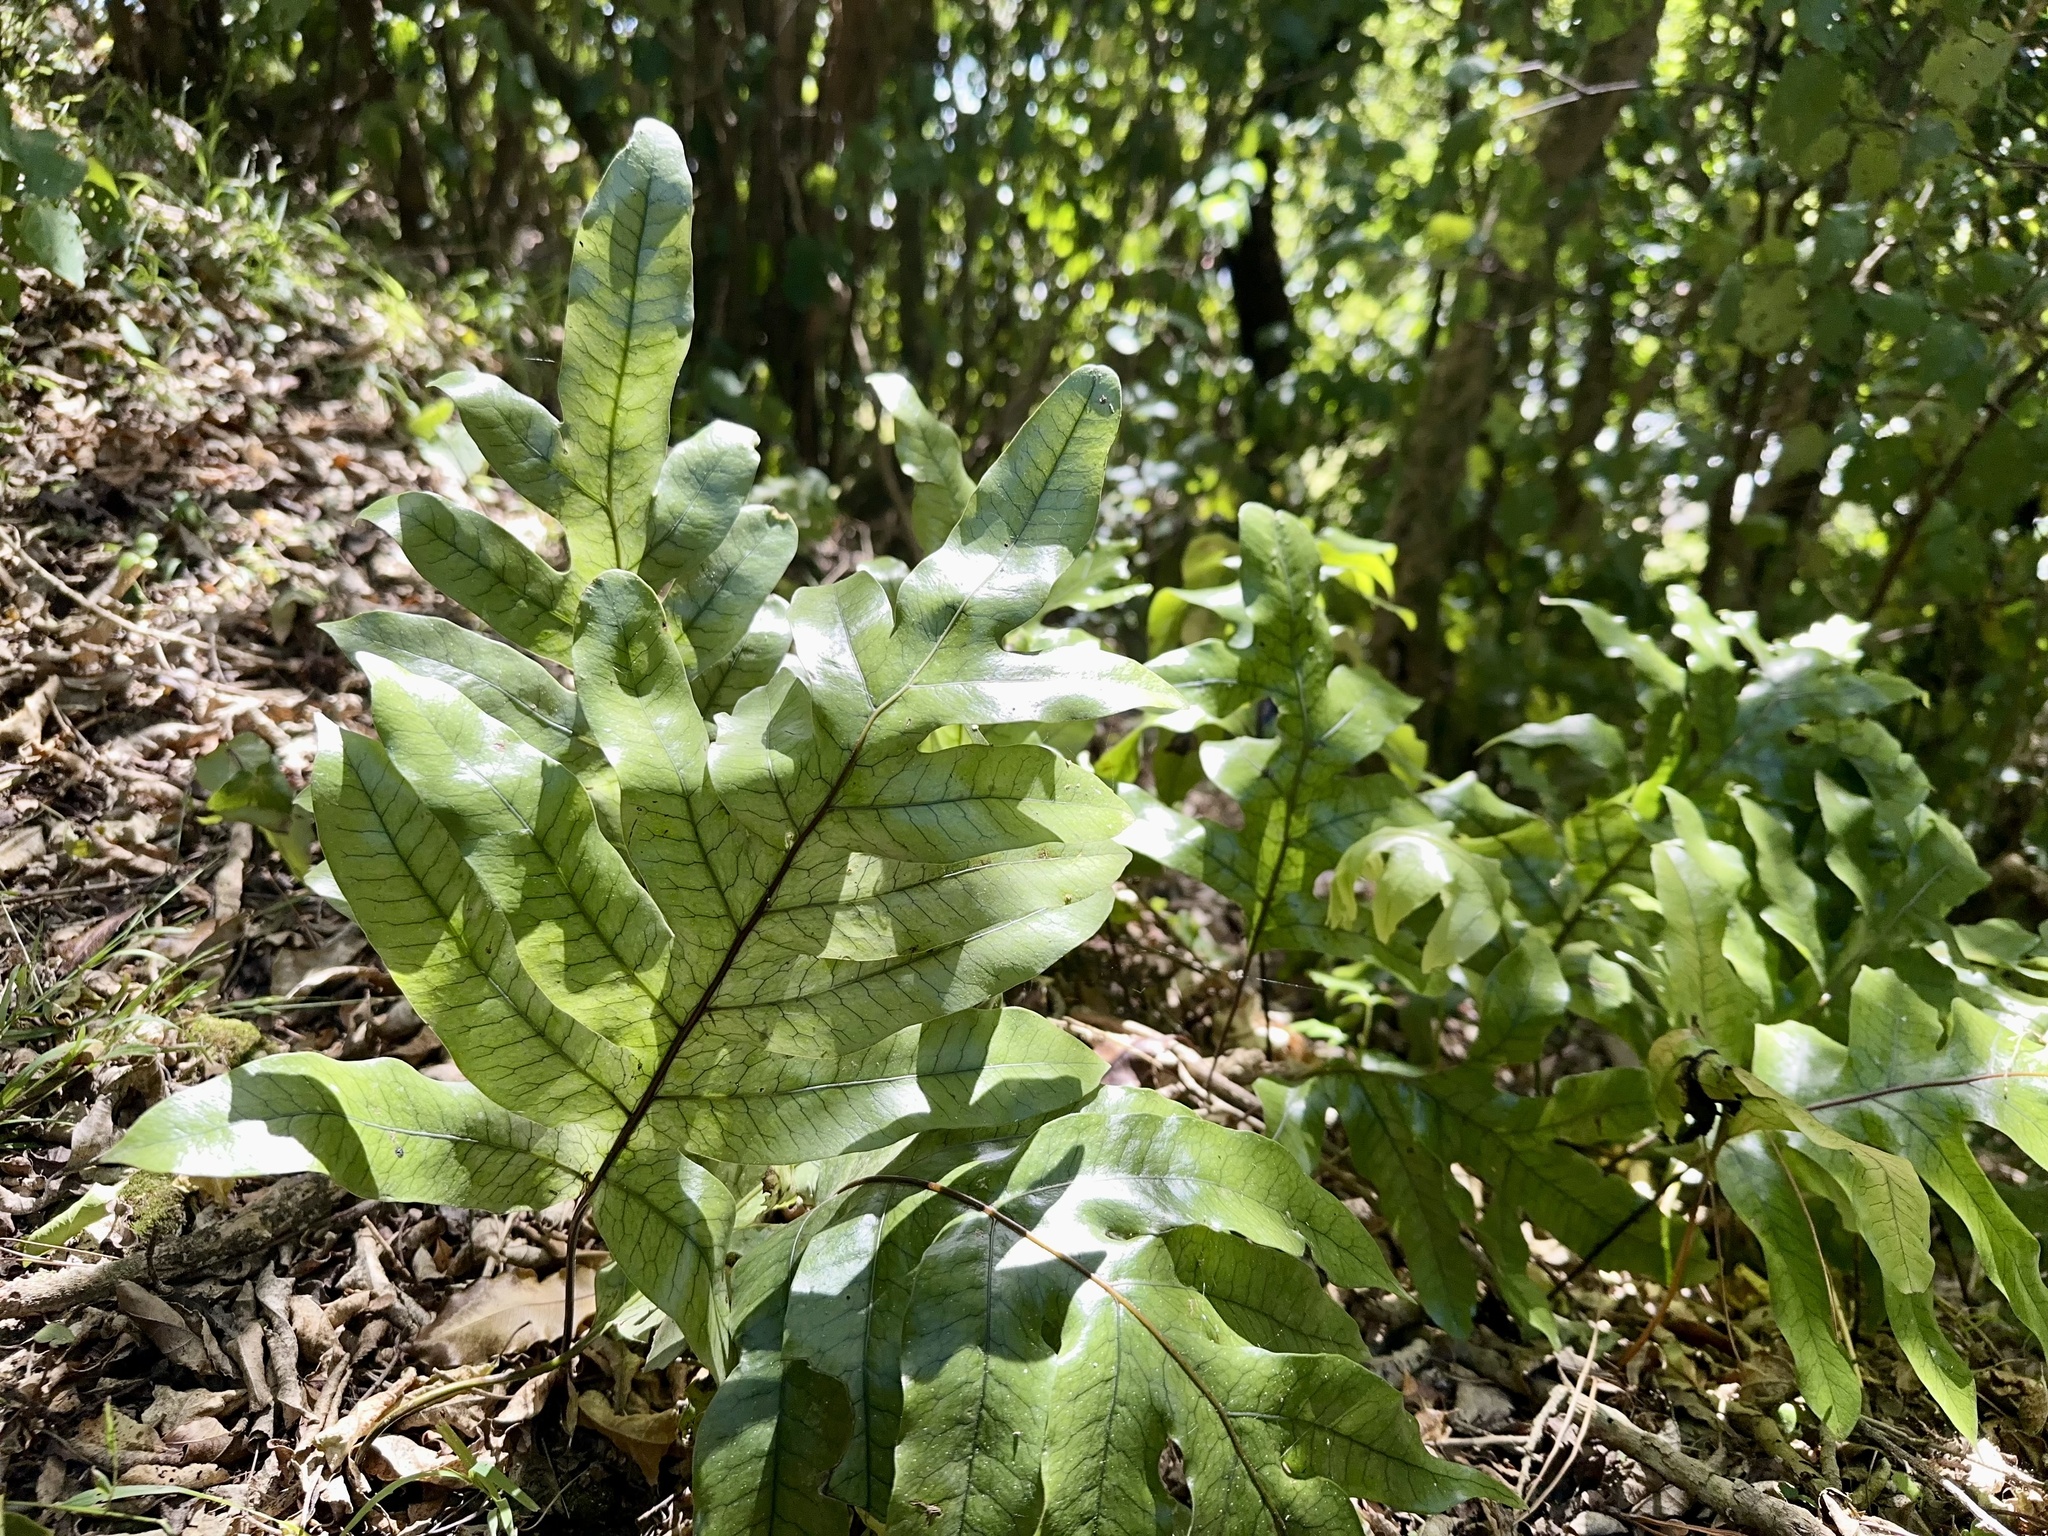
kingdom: Plantae
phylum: Tracheophyta
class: Polypodiopsida
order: Polypodiales
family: Polypodiaceae
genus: Lecanopteris
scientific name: Lecanopteris pustulata
